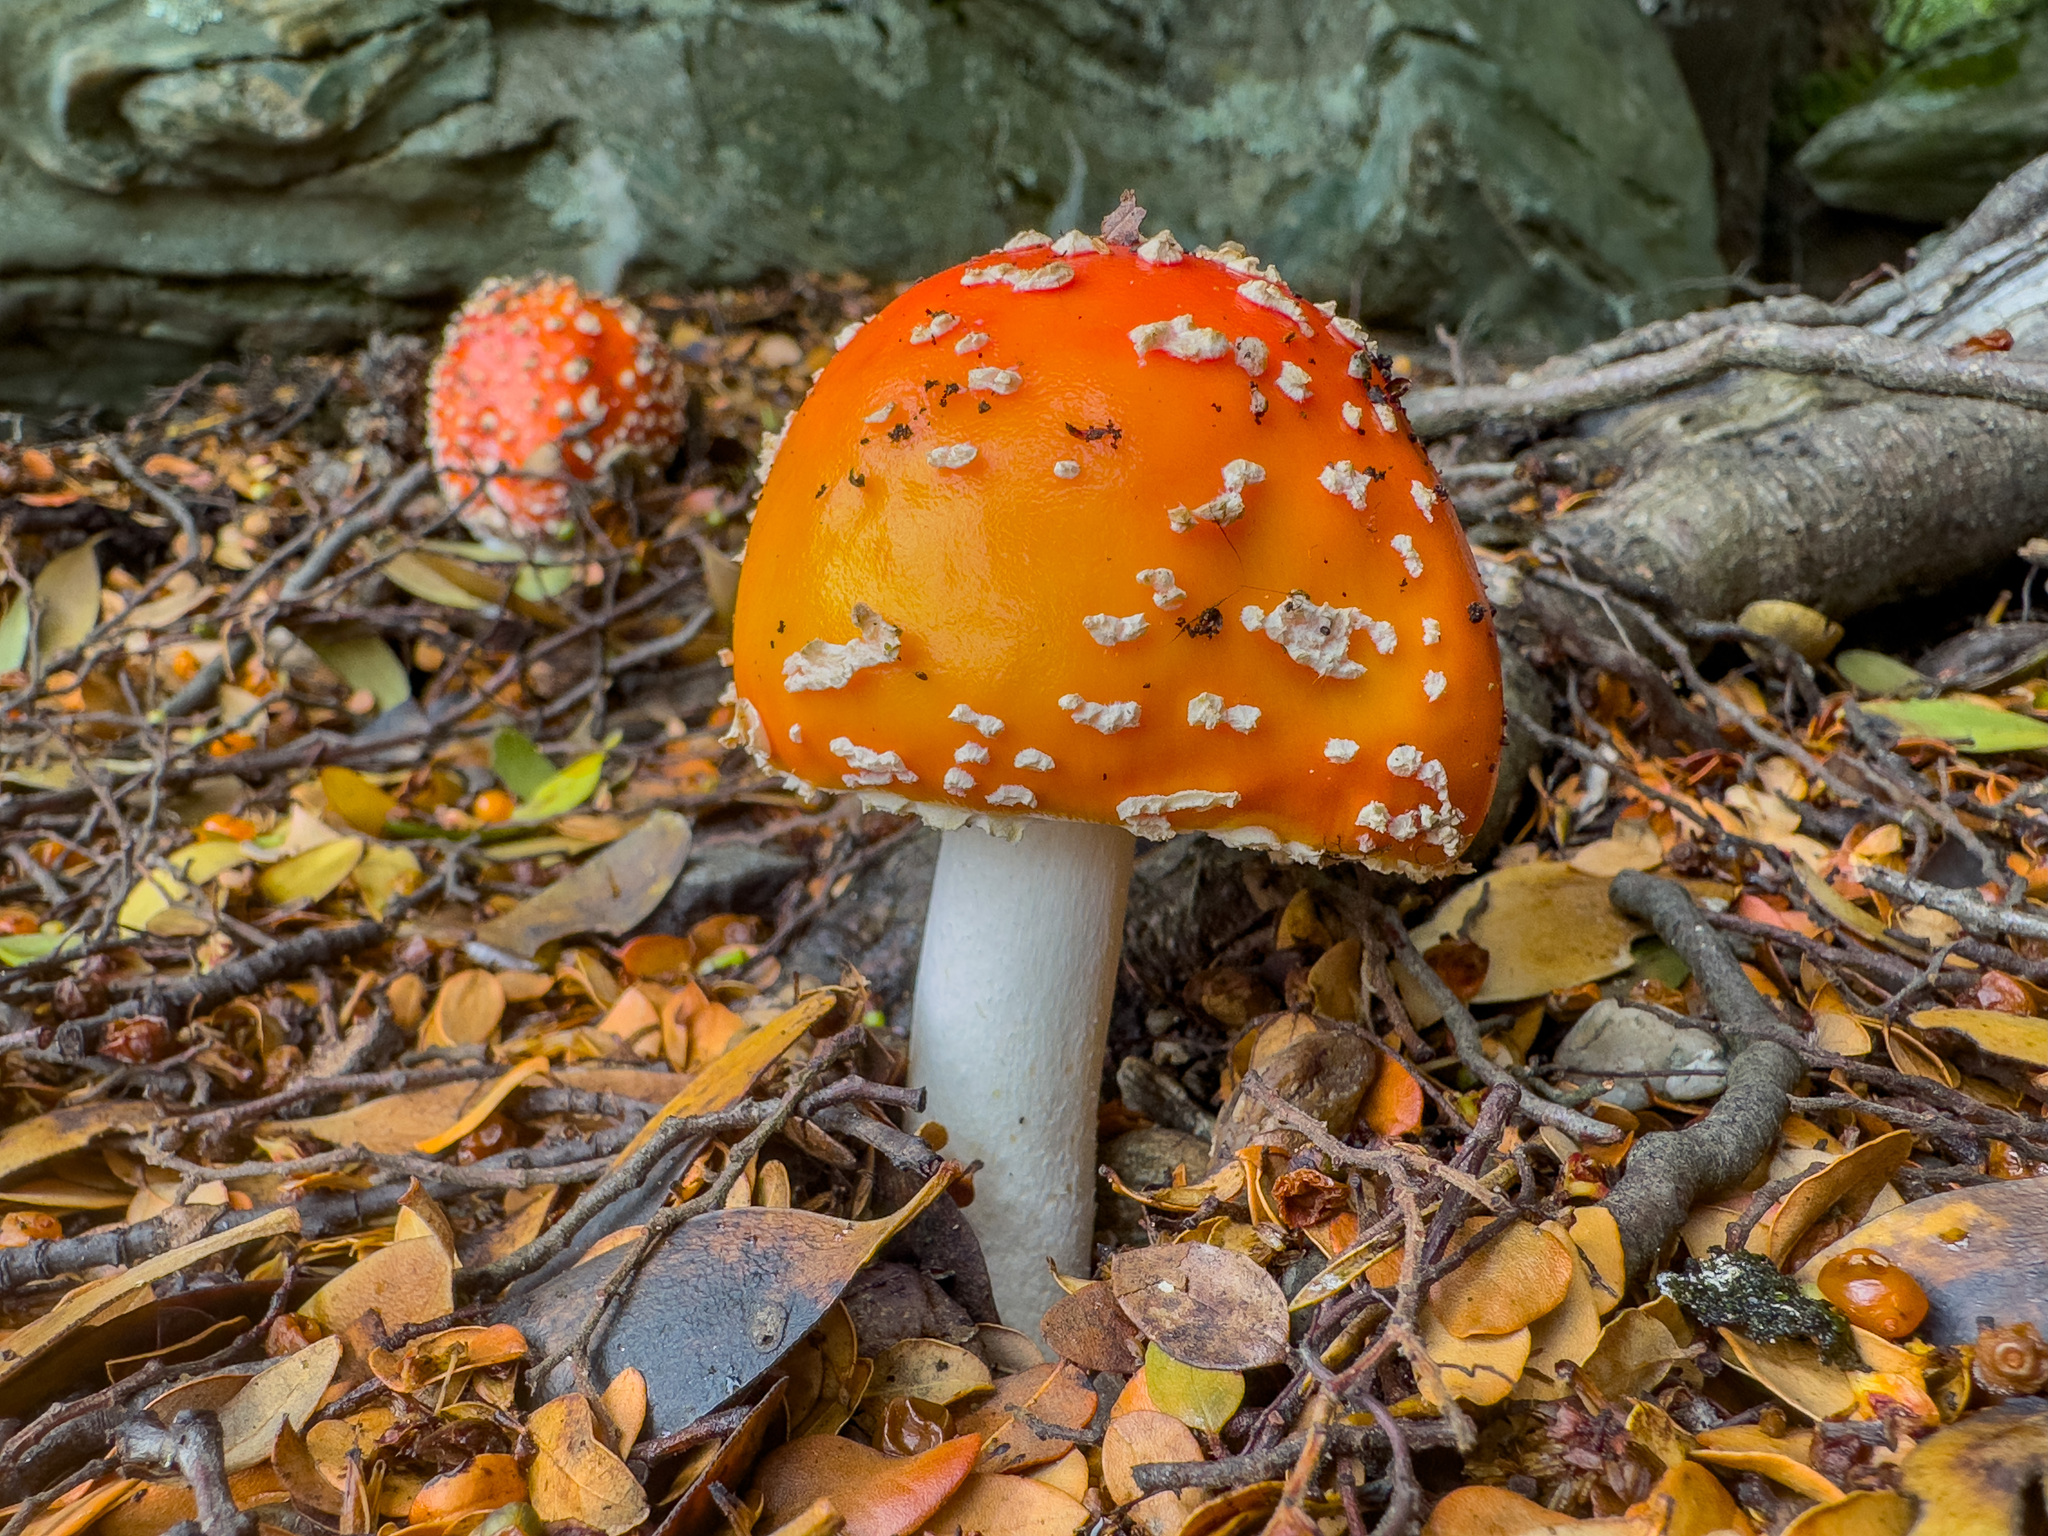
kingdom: Fungi
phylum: Basidiomycota
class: Agaricomycetes
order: Agaricales
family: Amanitaceae
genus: Amanita
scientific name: Amanita muscaria
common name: Fly agaric
